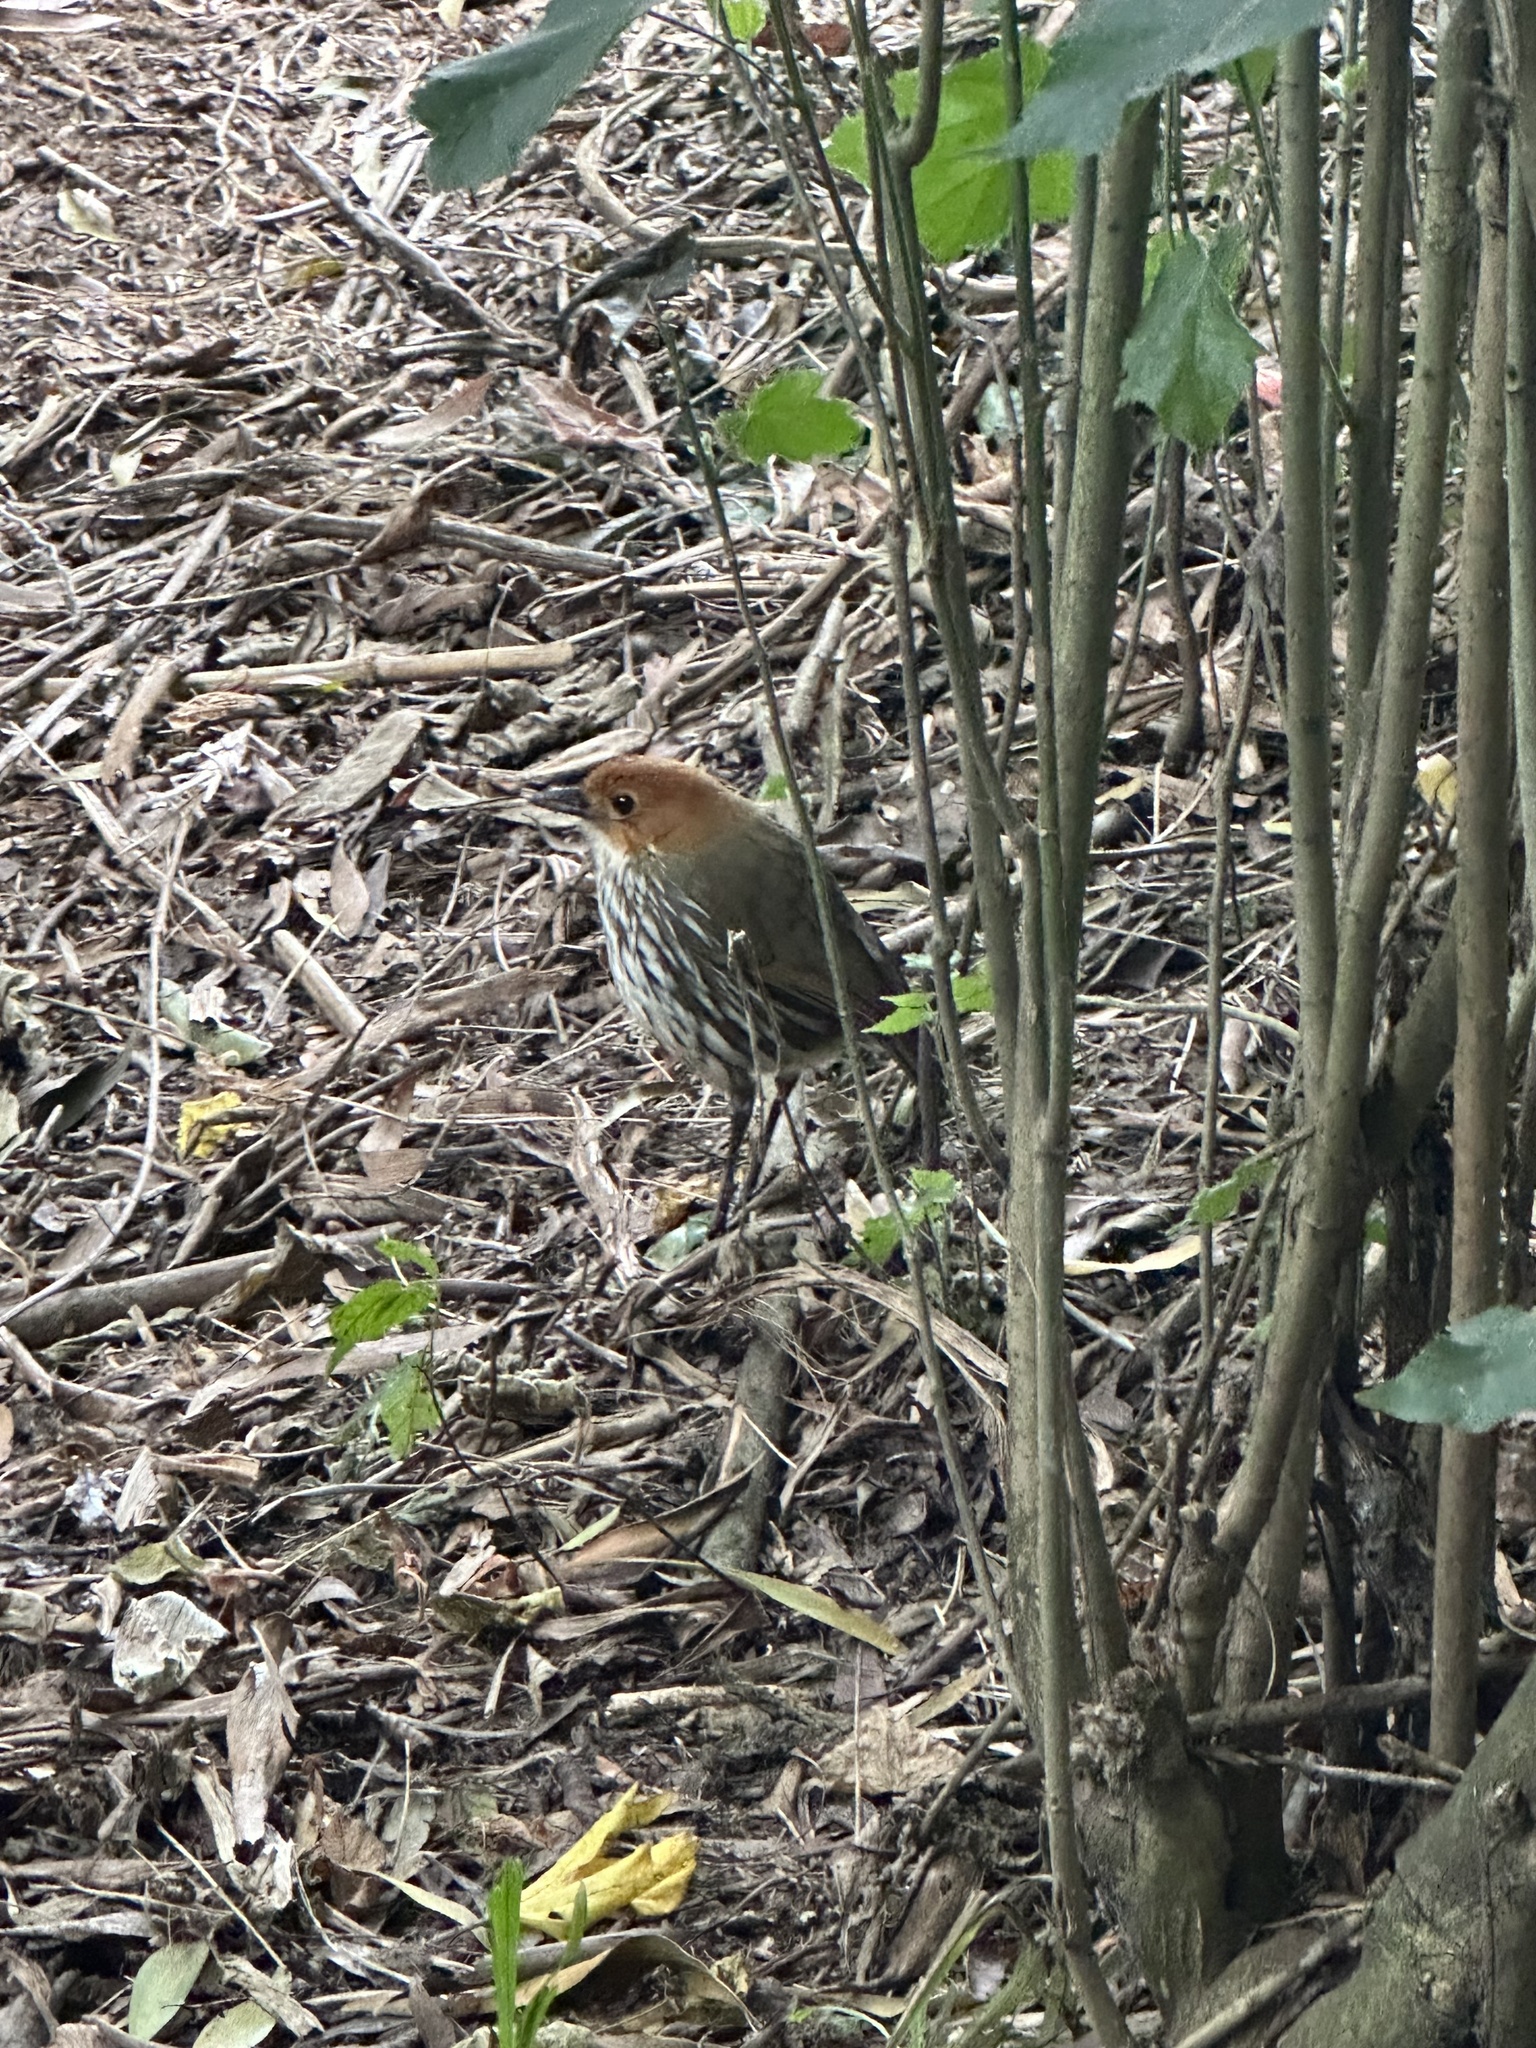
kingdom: Animalia
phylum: Chordata
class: Aves
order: Passeriformes
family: Grallariidae
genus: Grallaria
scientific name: Grallaria ruficapilla
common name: Chestnut-crowned antpitta
